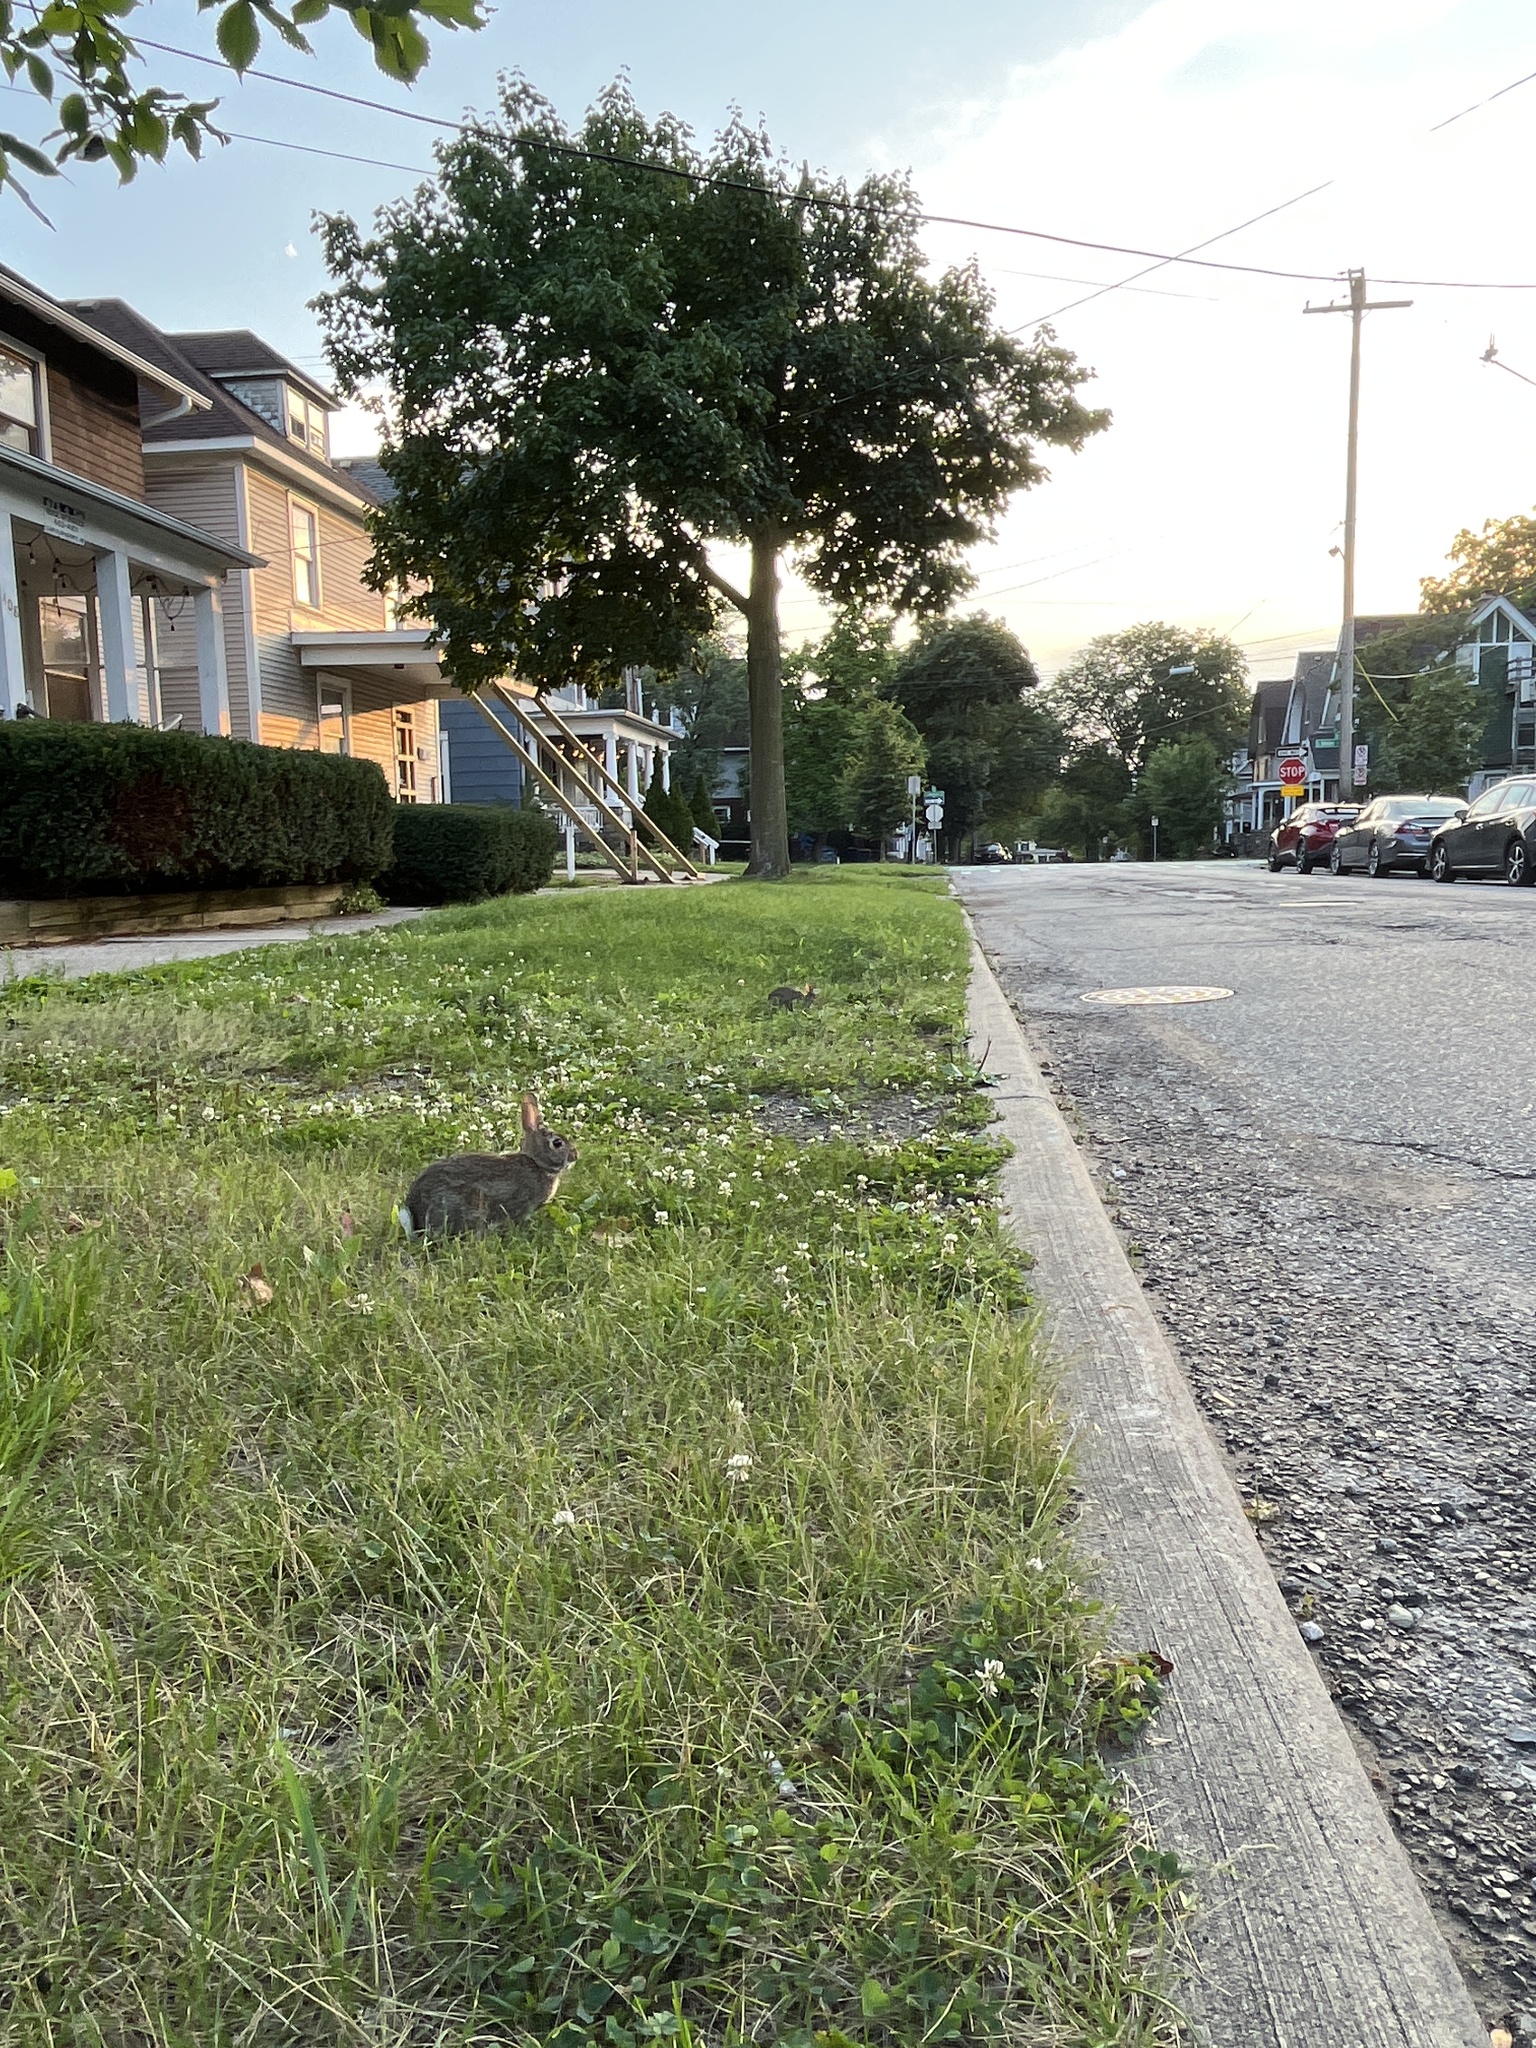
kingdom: Animalia
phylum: Chordata
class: Mammalia
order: Lagomorpha
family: Leporidae
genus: Sylvilagus
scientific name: Sylvilagus floridanus
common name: Eastern cottontail
